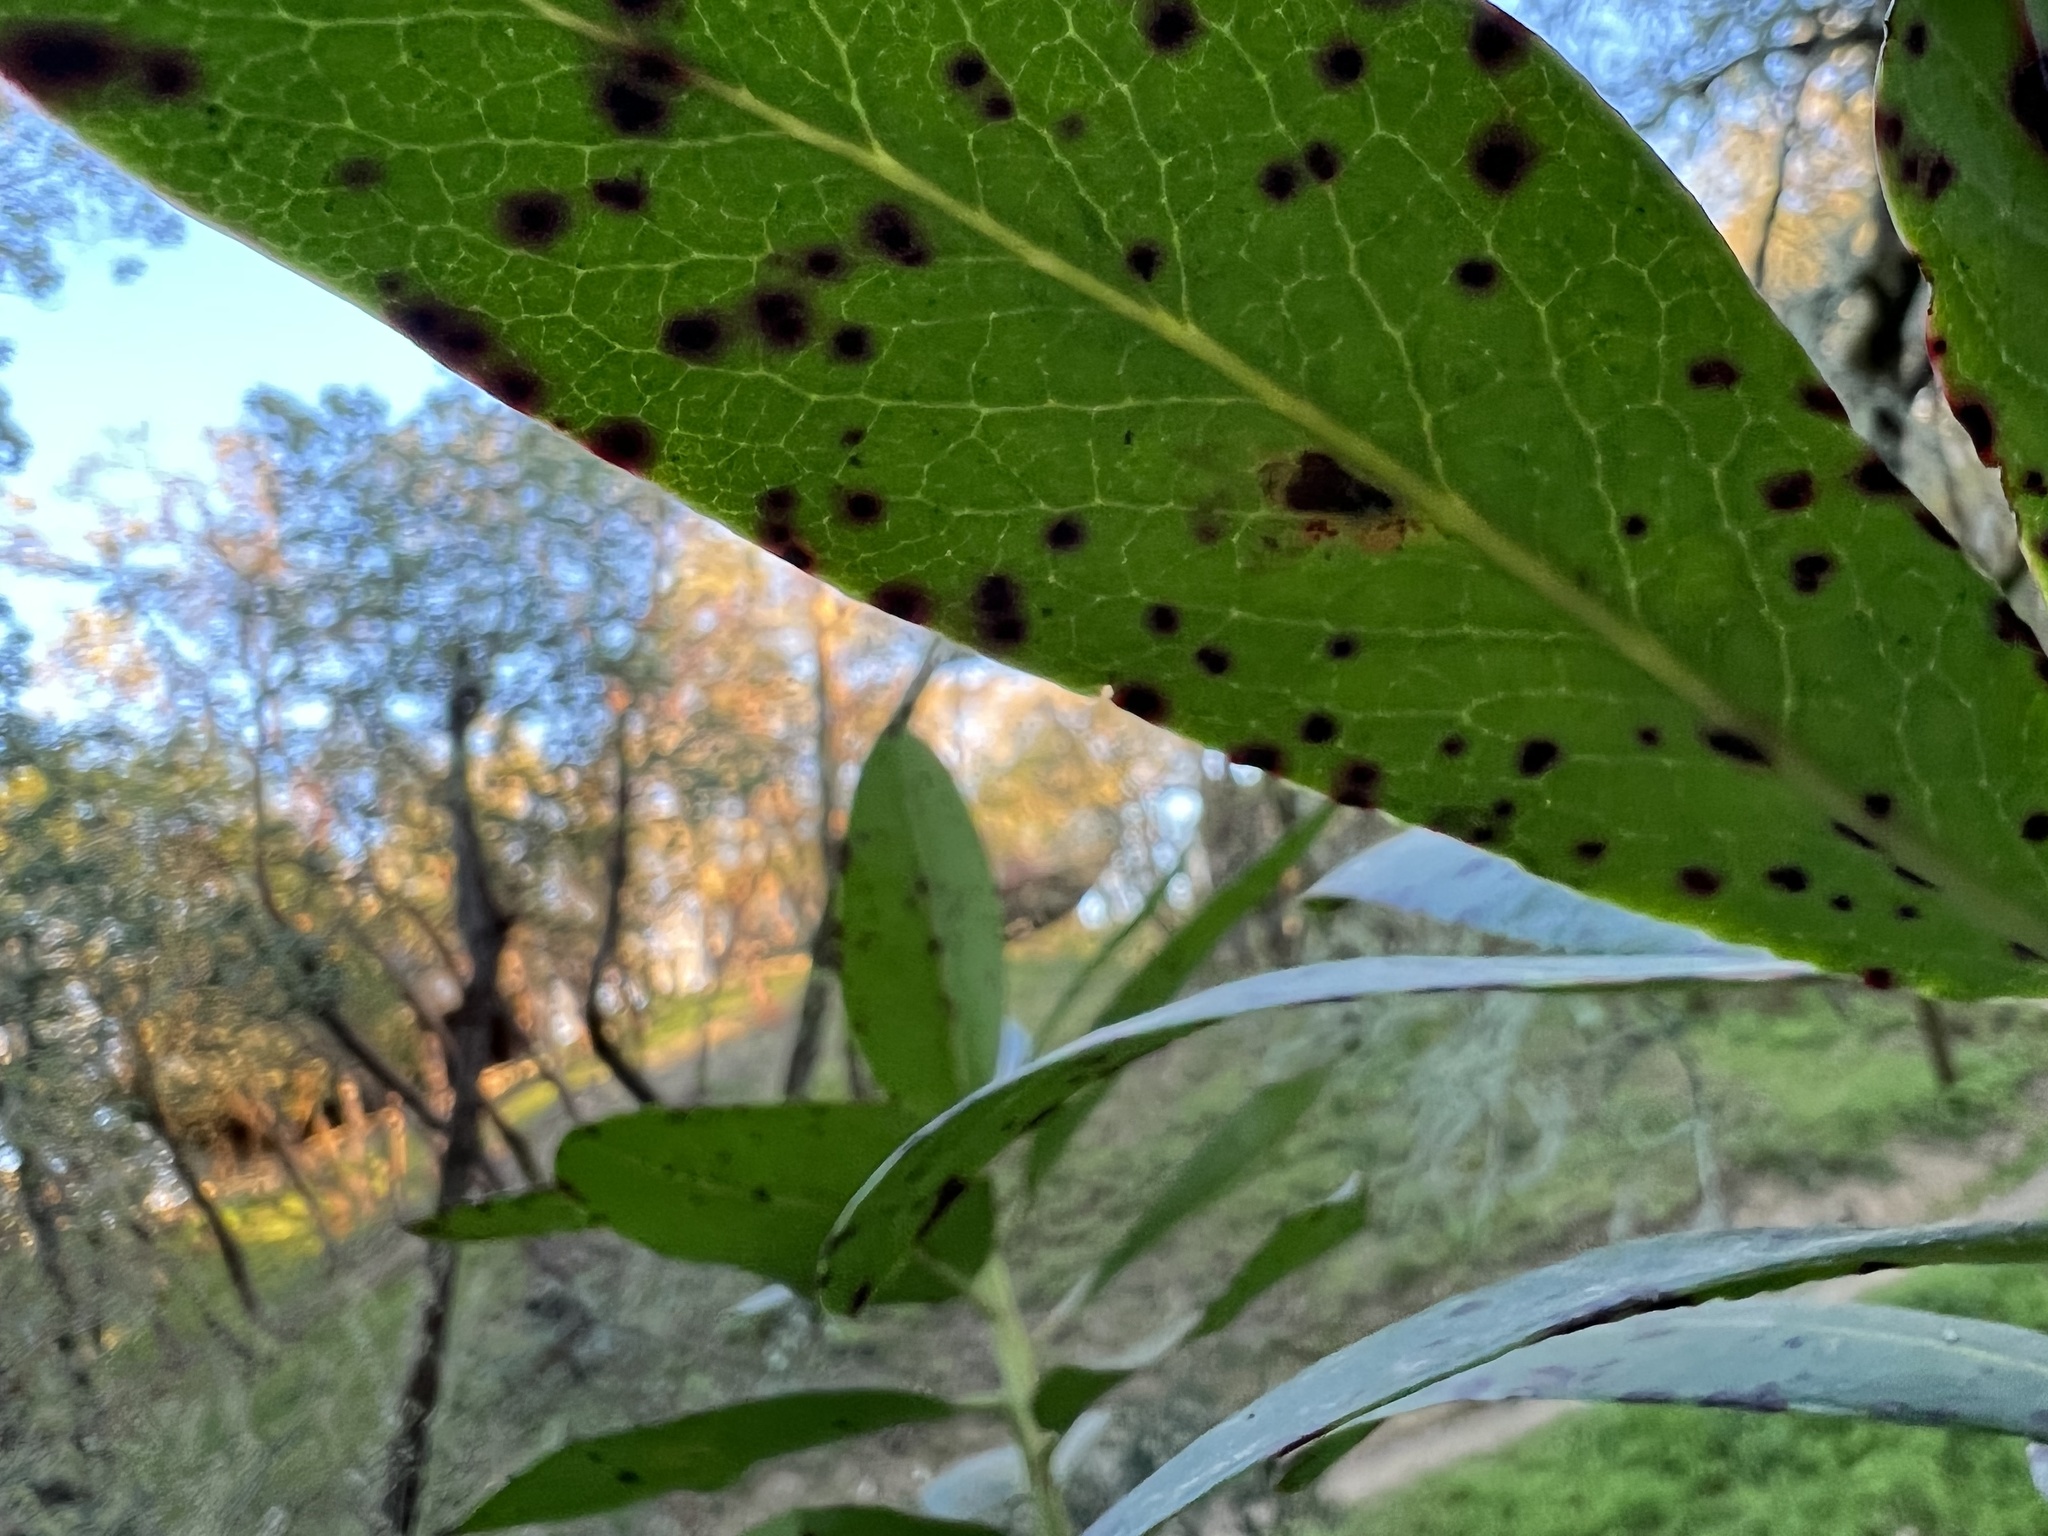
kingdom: Plantae
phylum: Tracheophyta
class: Magnoliopsida
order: Ericales
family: Ericaceae
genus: Arbutus
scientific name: Arbutus menziesii
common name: Pacific madrone
